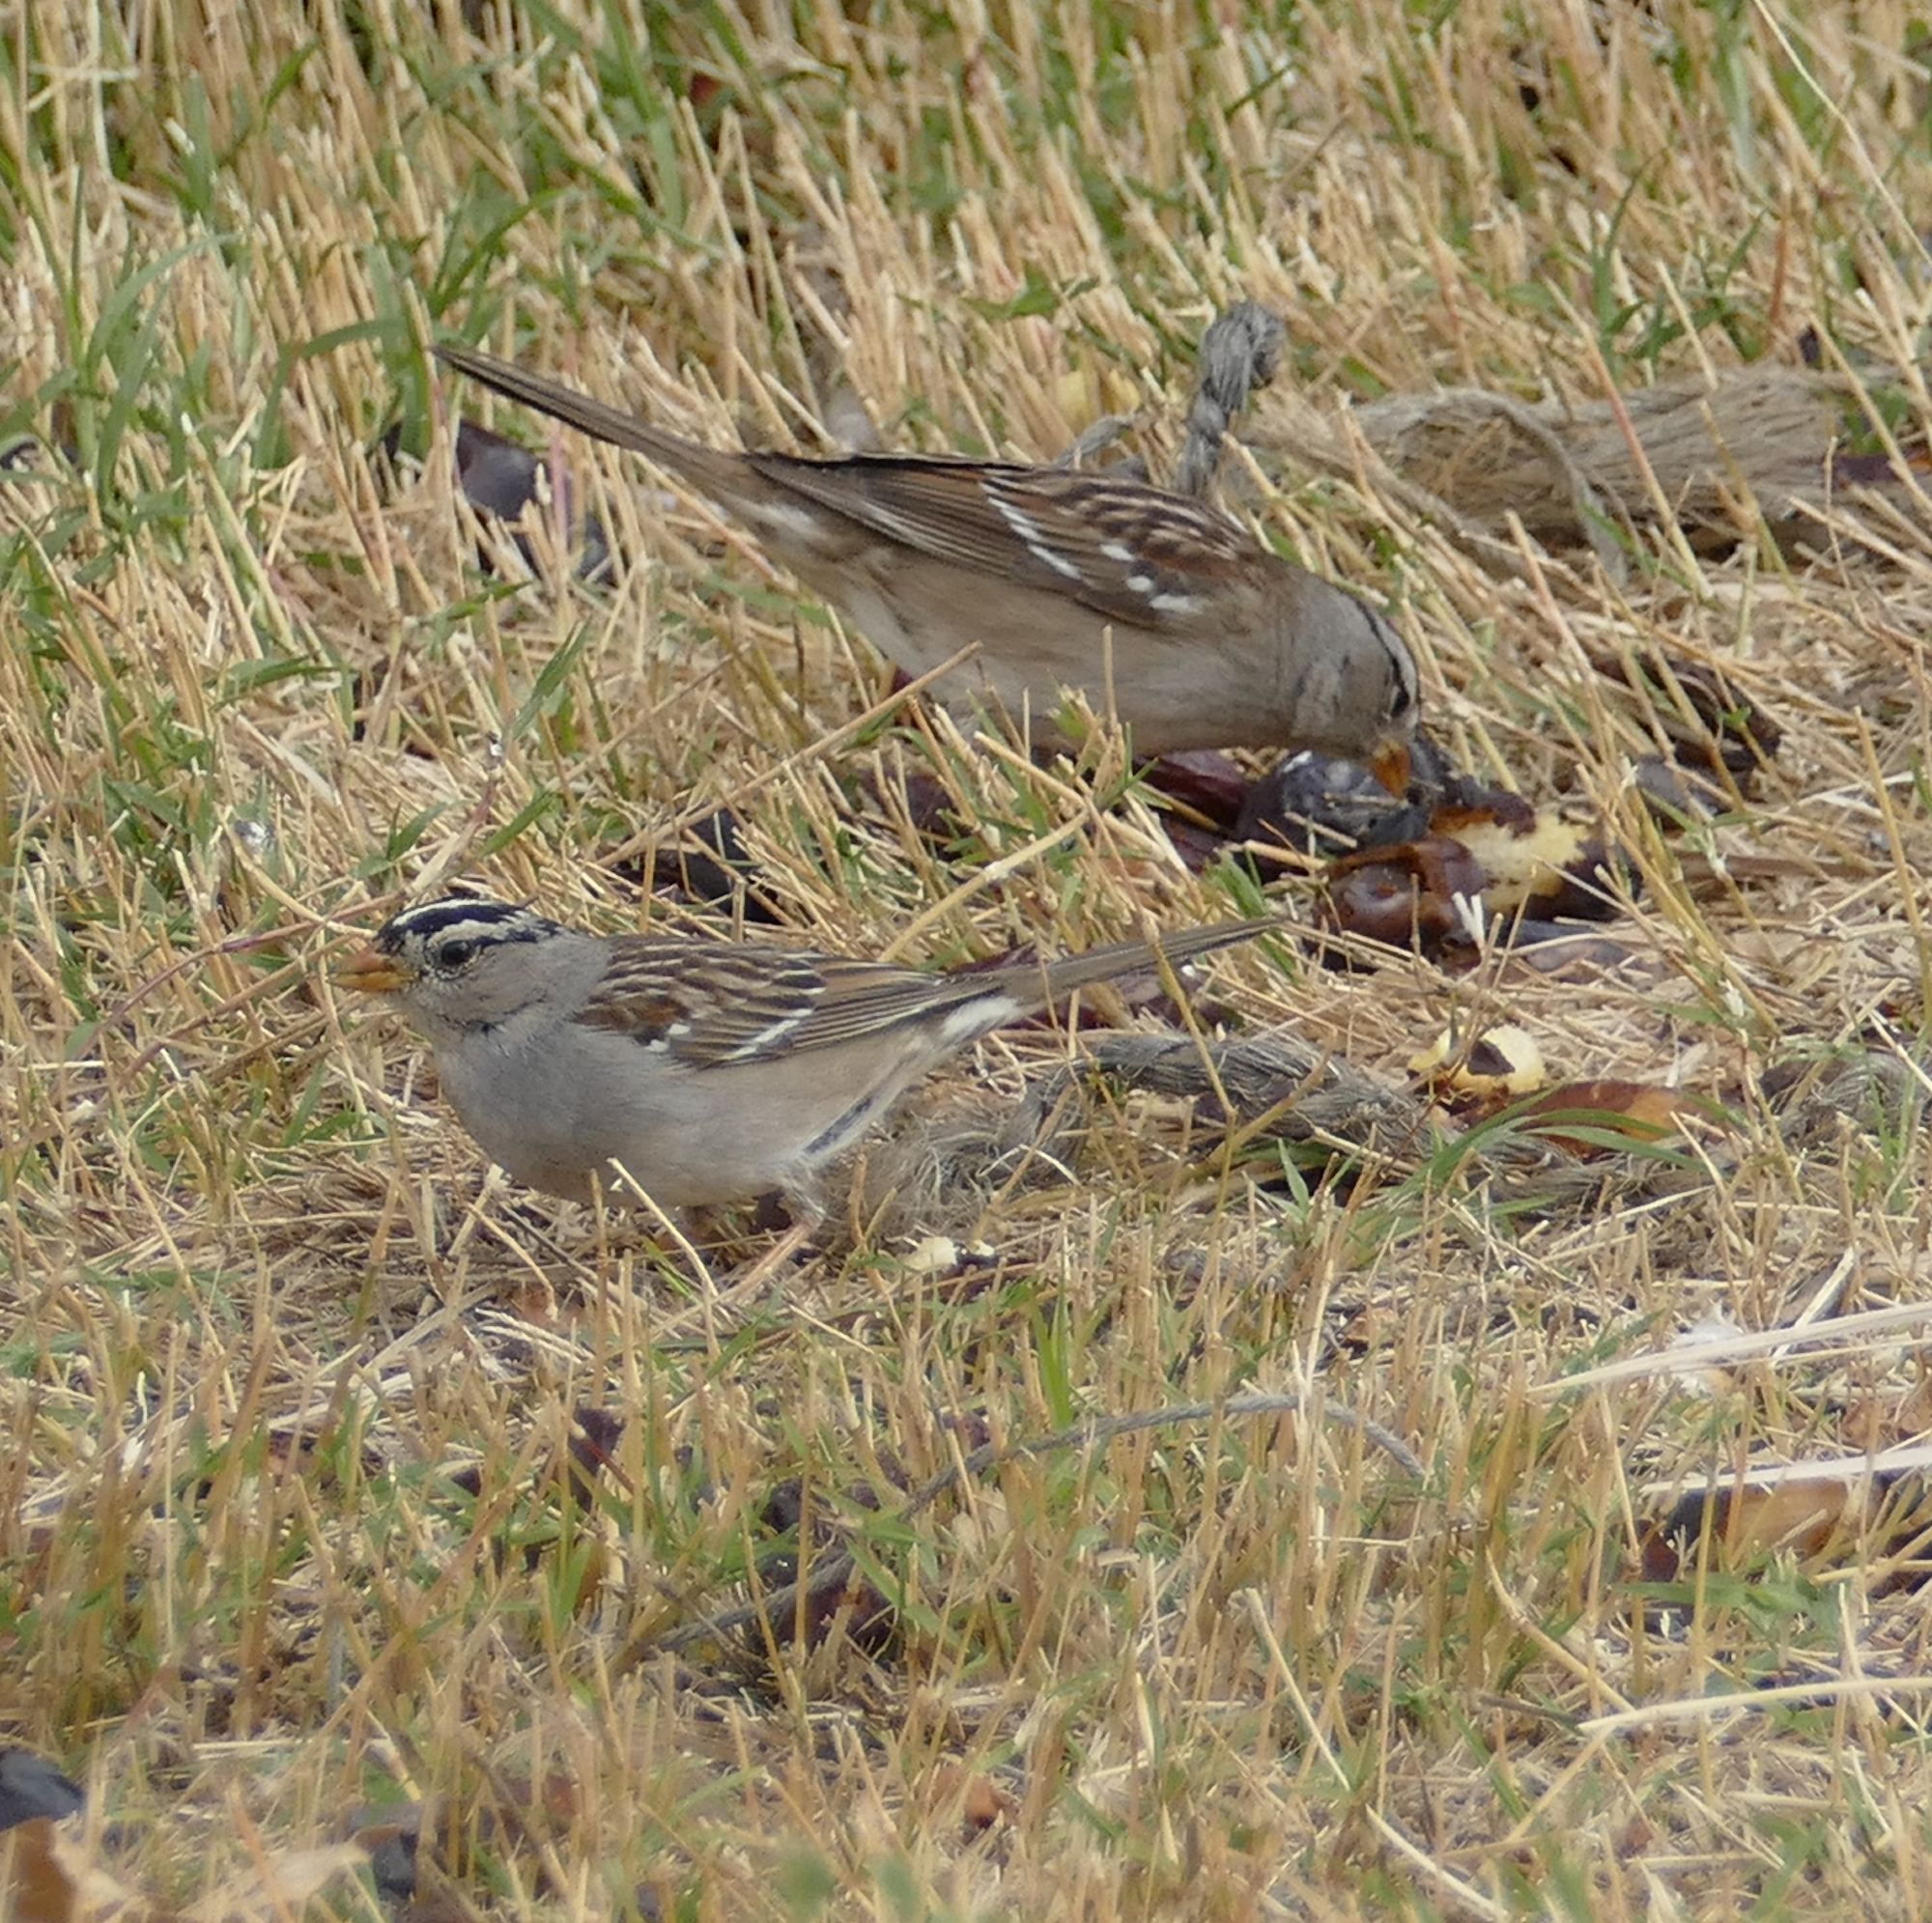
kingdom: Animalia
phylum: Chordata
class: Aves
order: Passeriformes
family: Passerellidae
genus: Zonotrichia
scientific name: Zonotrichia leucophrys
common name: White-crowned sparrow
